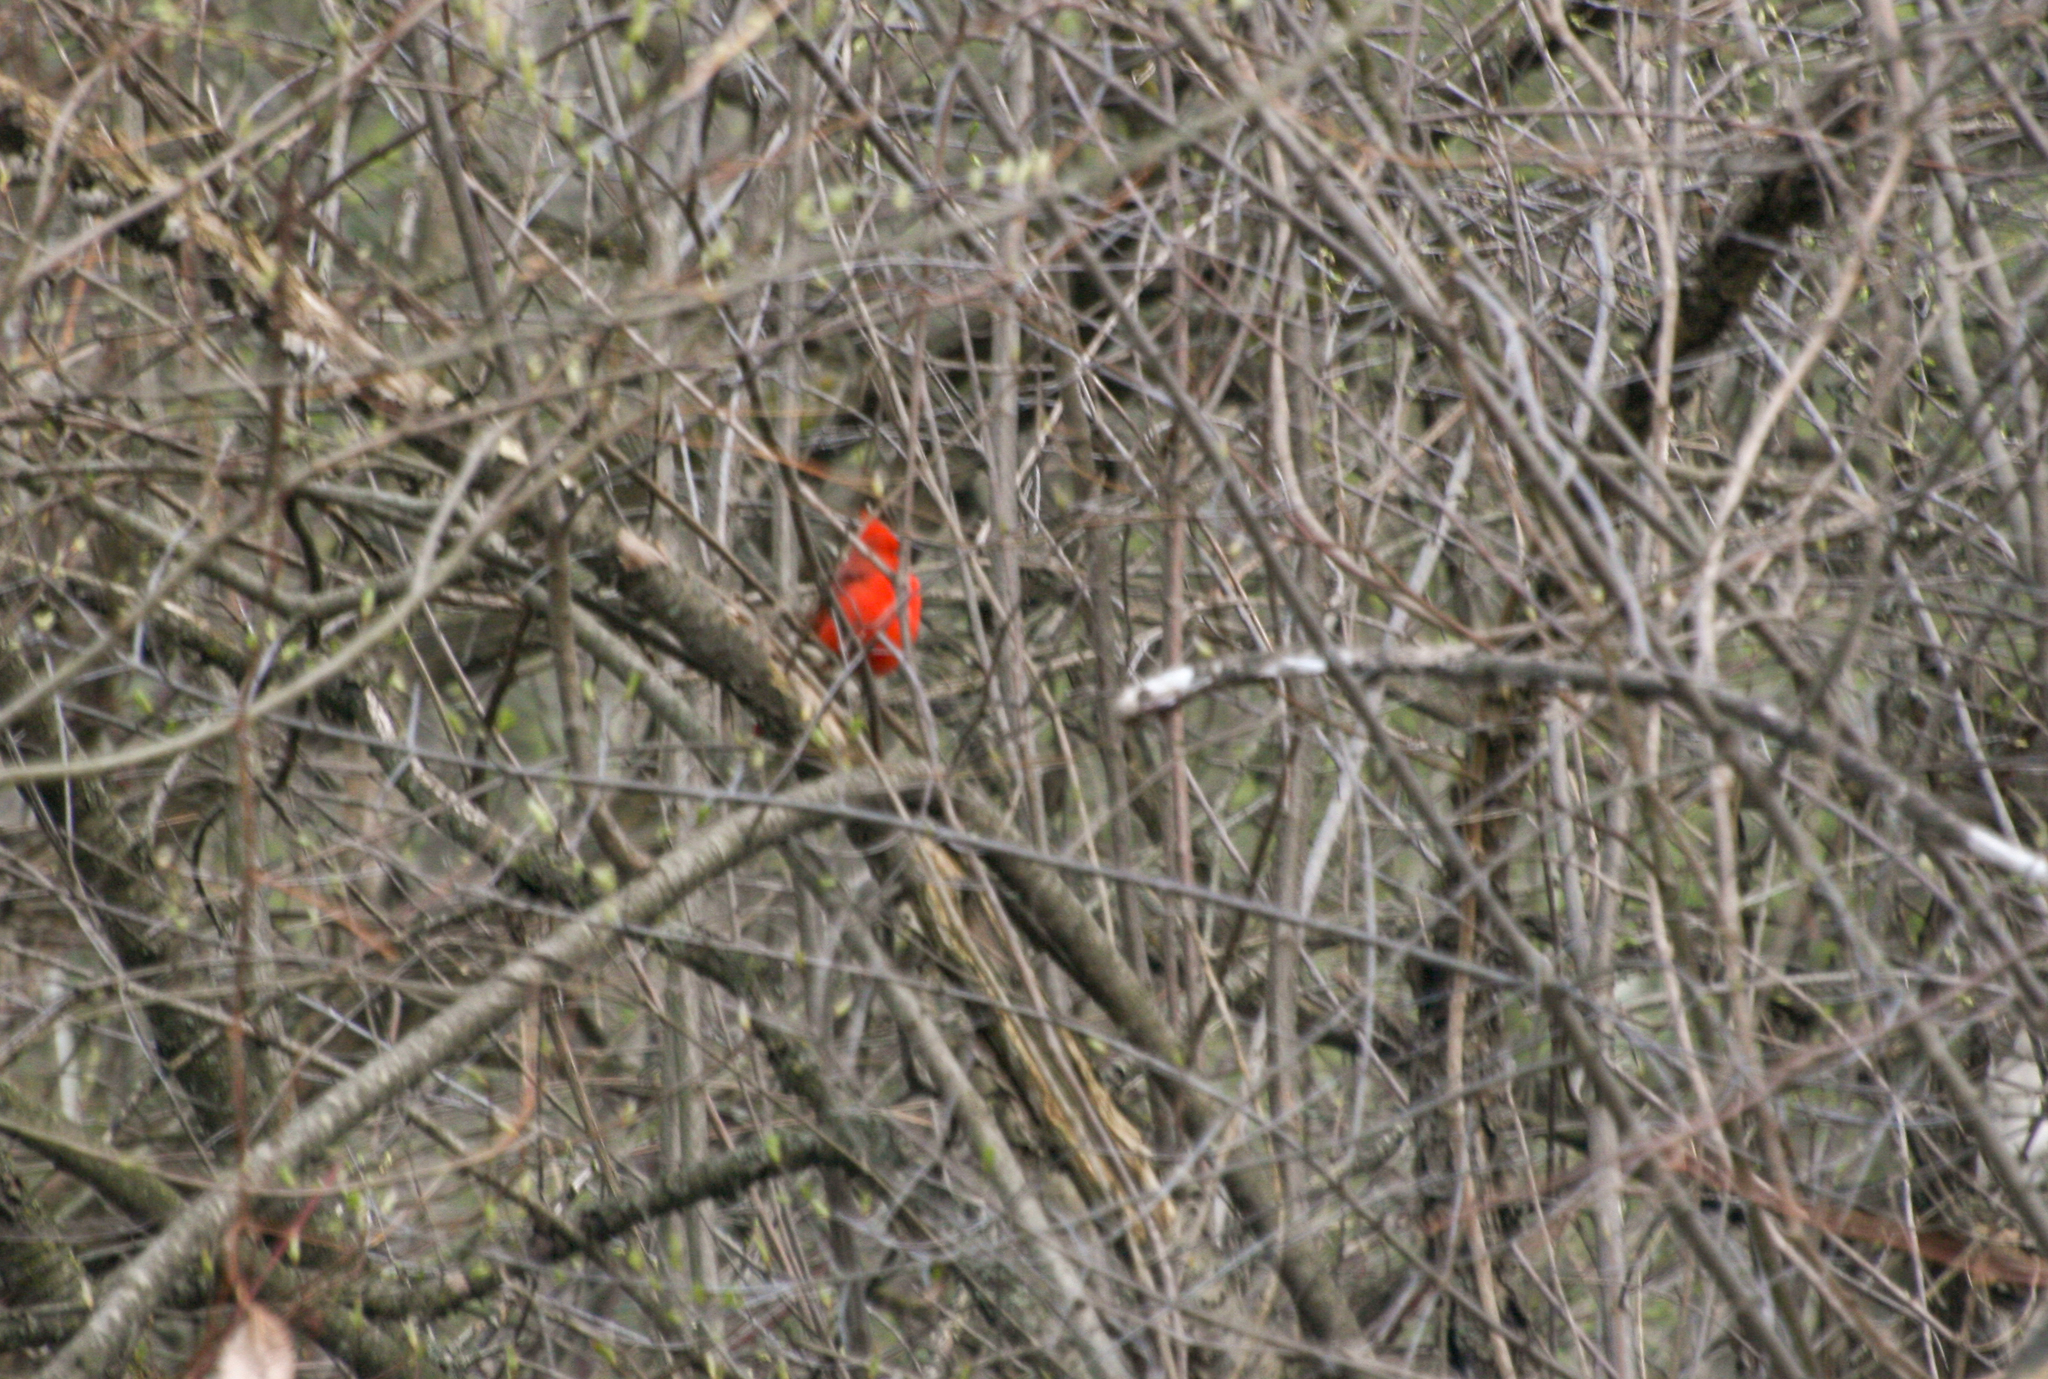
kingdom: Animalia
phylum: Chordata
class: Aves
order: Passeriformes
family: Cardinalidae
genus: Cardinalis
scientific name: Cardinalis cardinalis
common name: Northern cardinal
